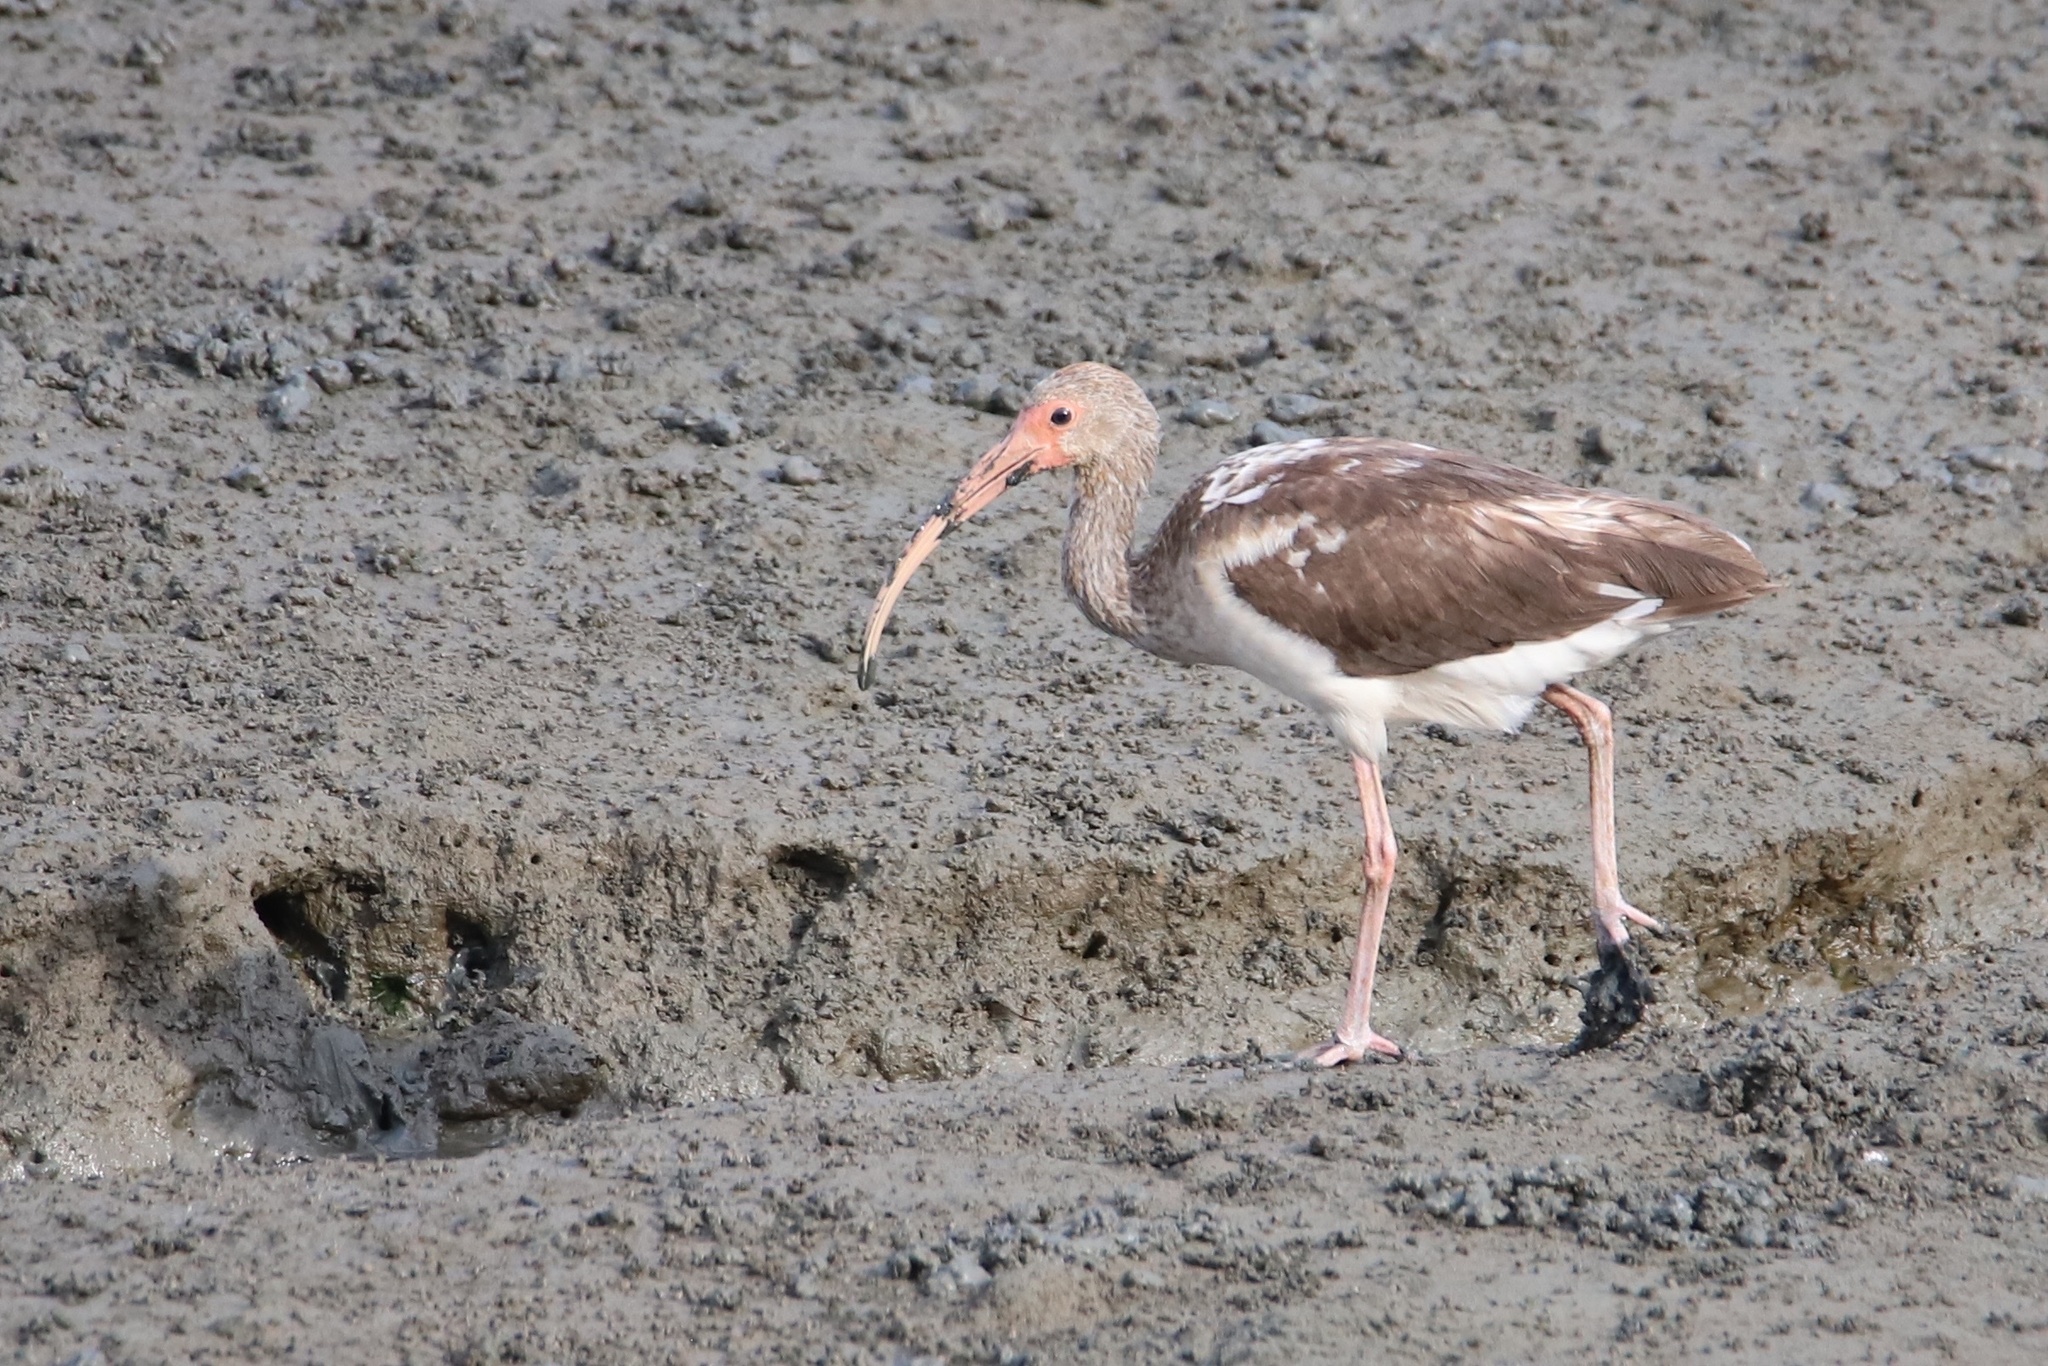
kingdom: Animalia
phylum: Chordata
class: Aves
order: Pelecaniformes
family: Threskiornithidae
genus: Eudocimus
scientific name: Eudocimus albus
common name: White ibis
